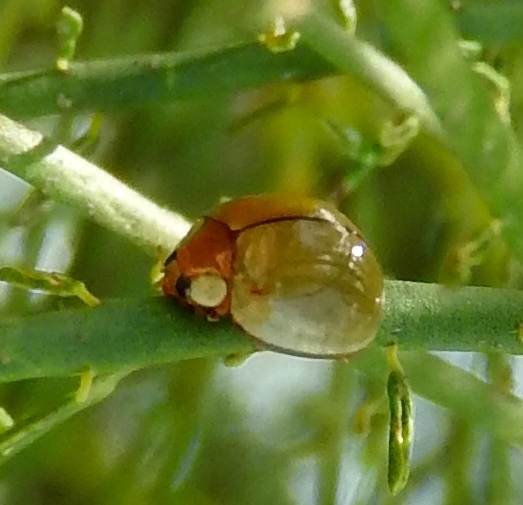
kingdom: Animalia
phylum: Arthropoda
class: Insecta
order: Coleoptera
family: Coccinellidae
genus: Paraneda
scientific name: Paraneda
